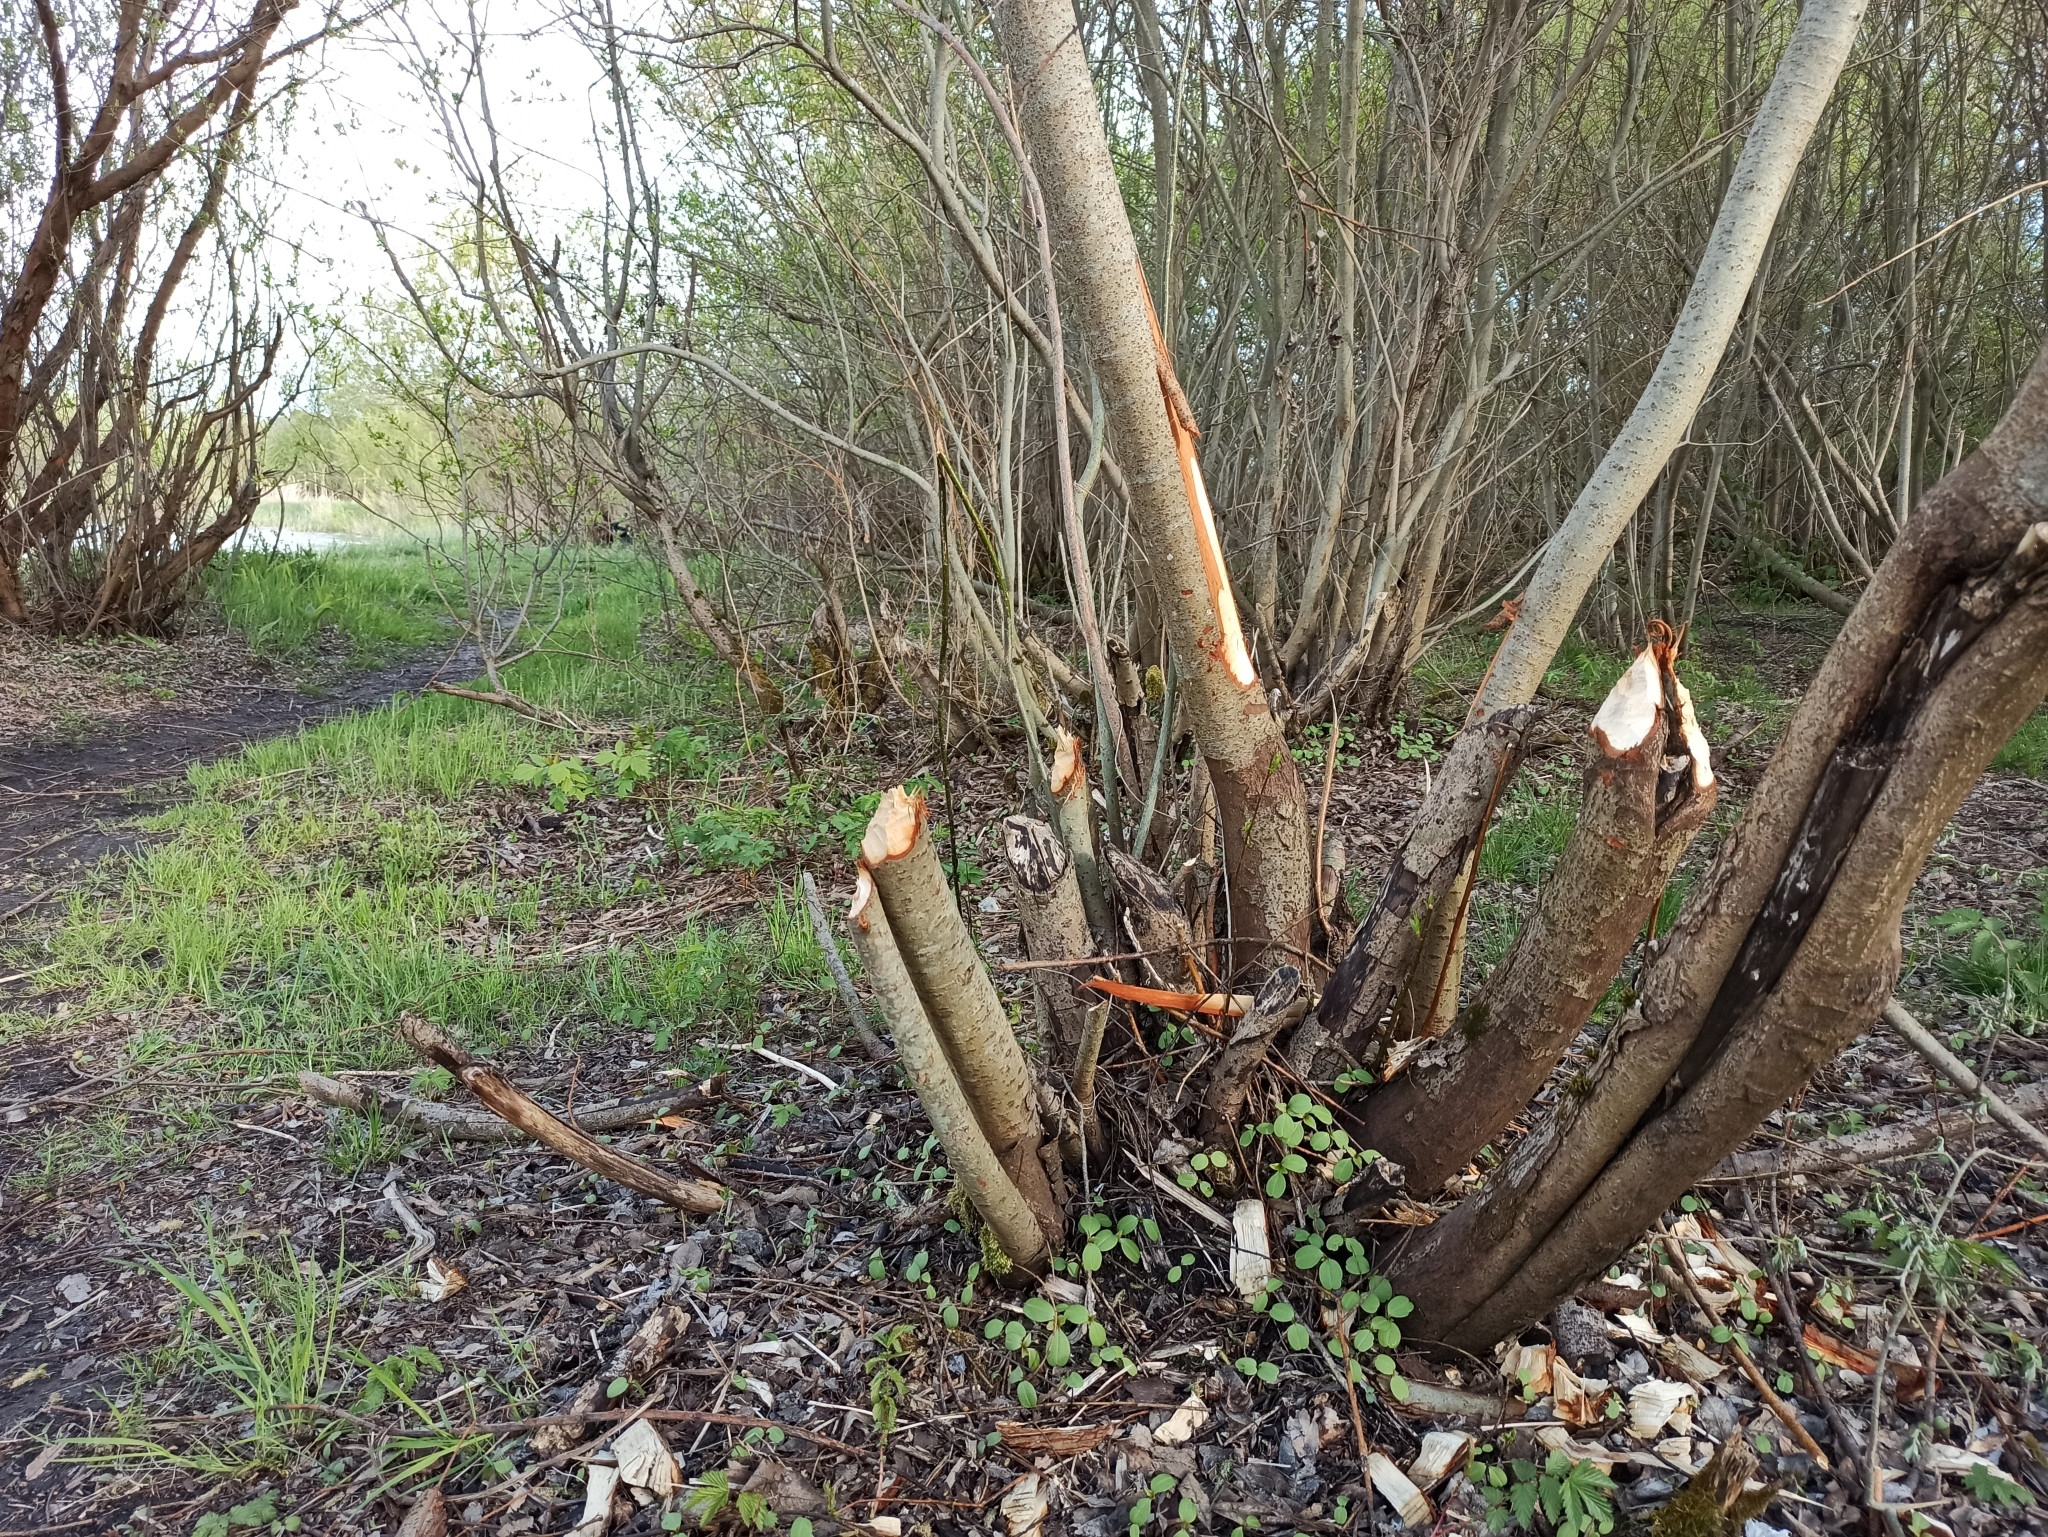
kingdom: Animalia
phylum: Chordata
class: Mammalia
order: Rodentia
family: Castoridae
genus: Castor
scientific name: Castor fiber
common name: Eurasian beaver
